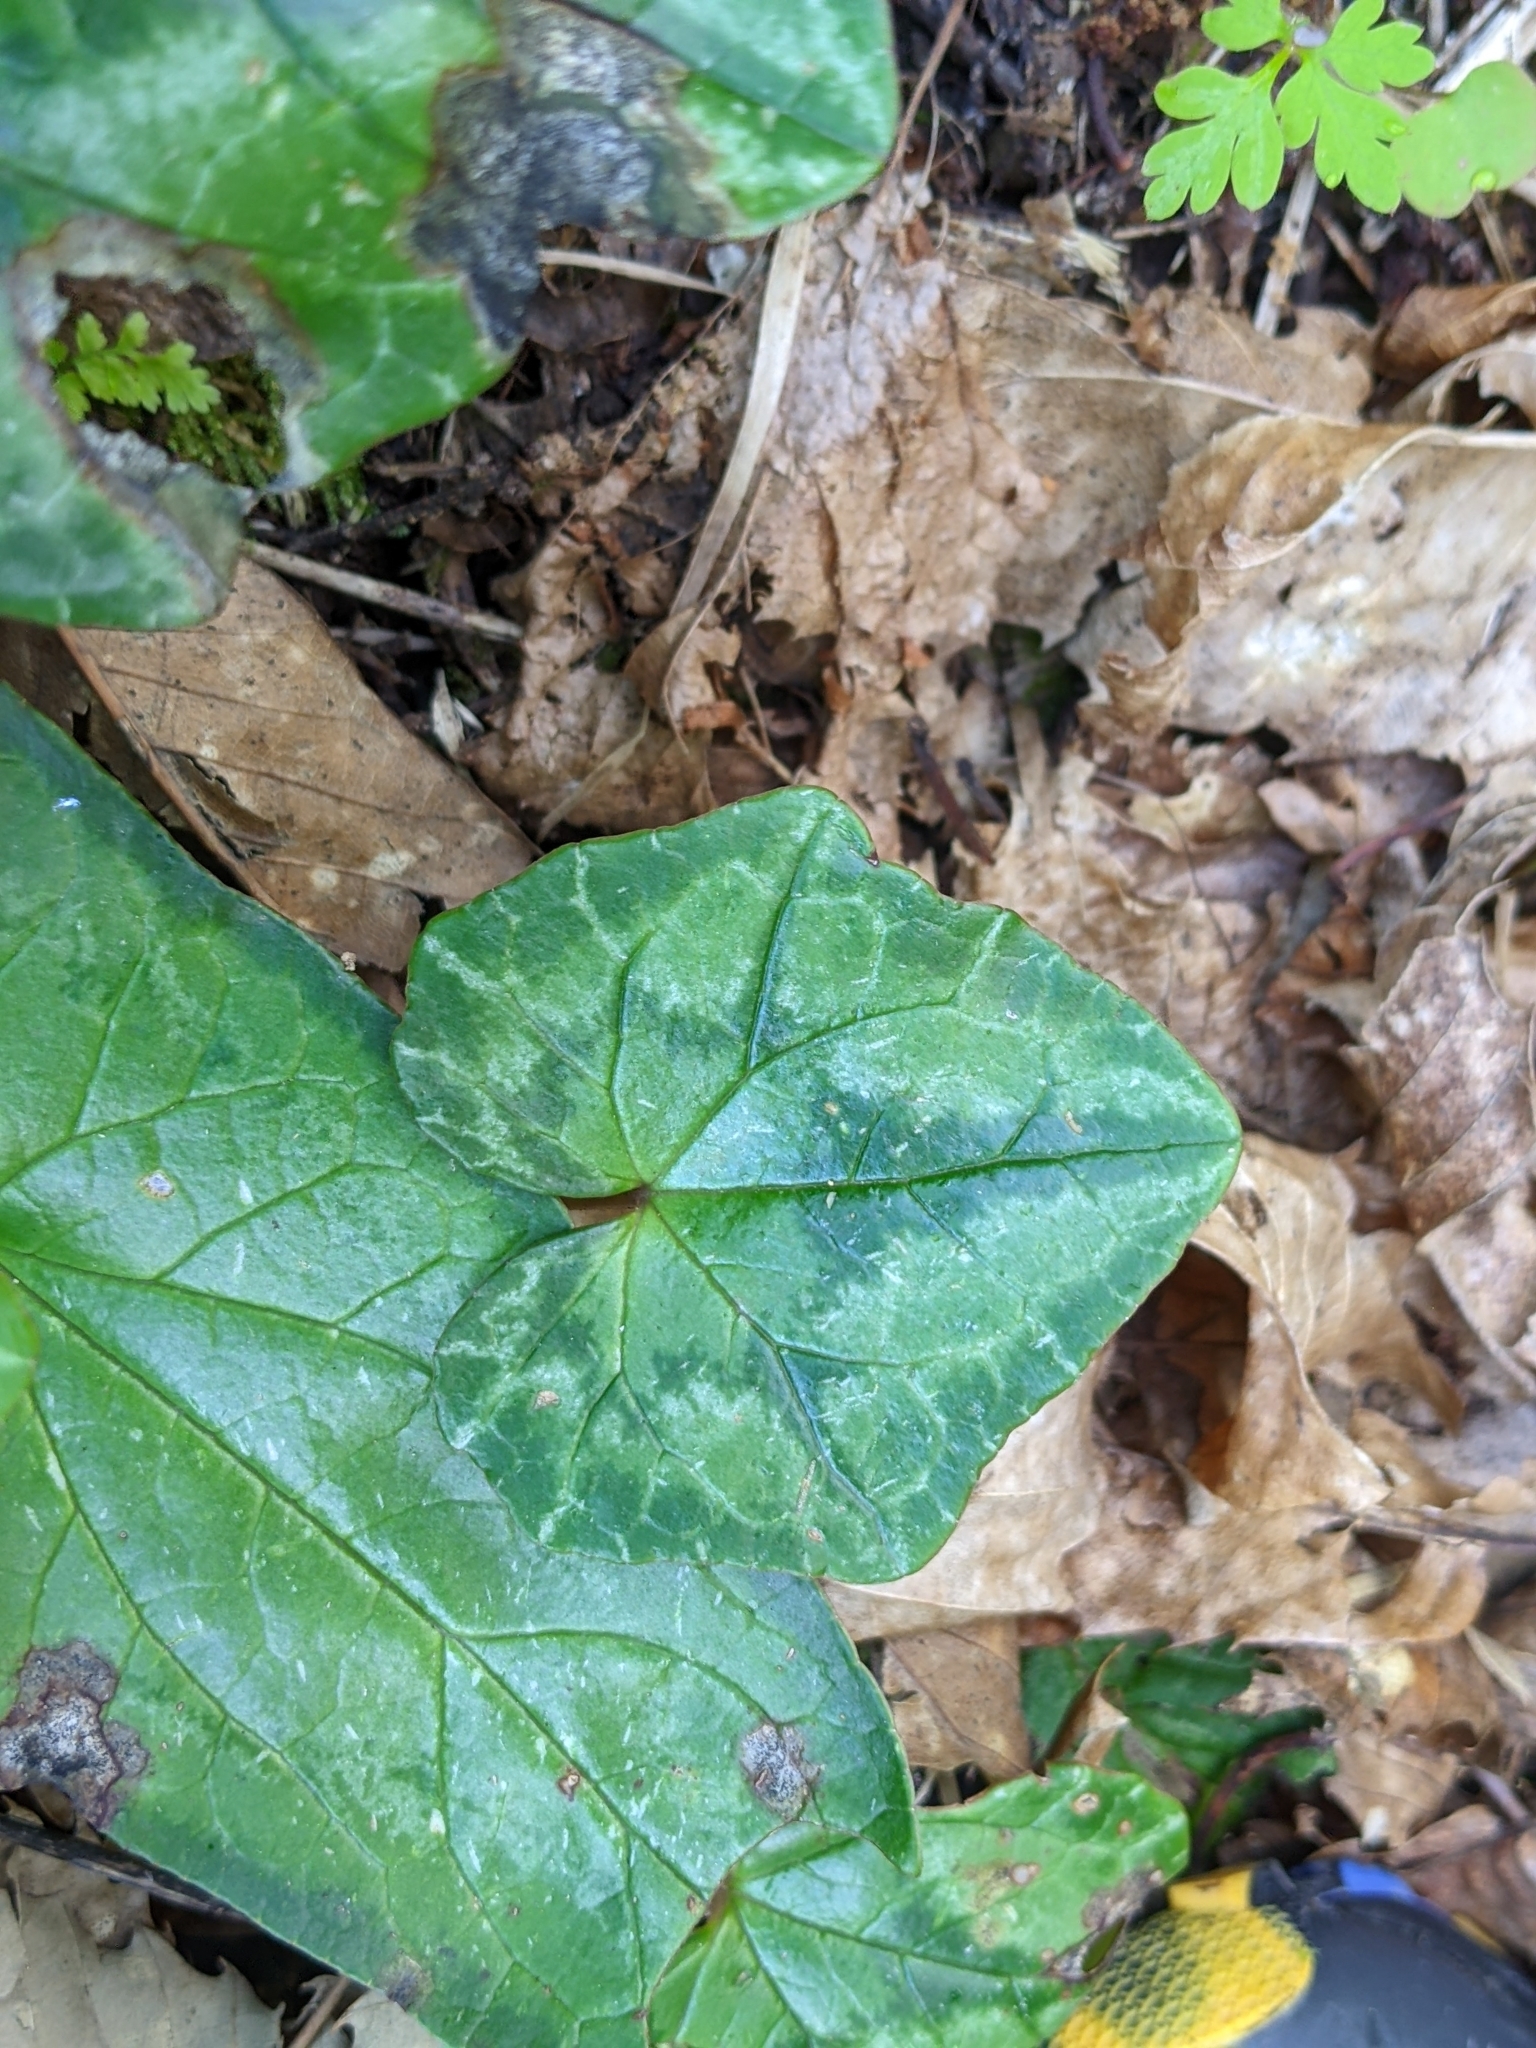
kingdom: Plantae
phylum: Tracheophyta
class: Magnoliopsida
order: Ericales
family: Primulaceae
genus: Cyclamen
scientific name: Cyclamen hederifolium
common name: Sowbread
